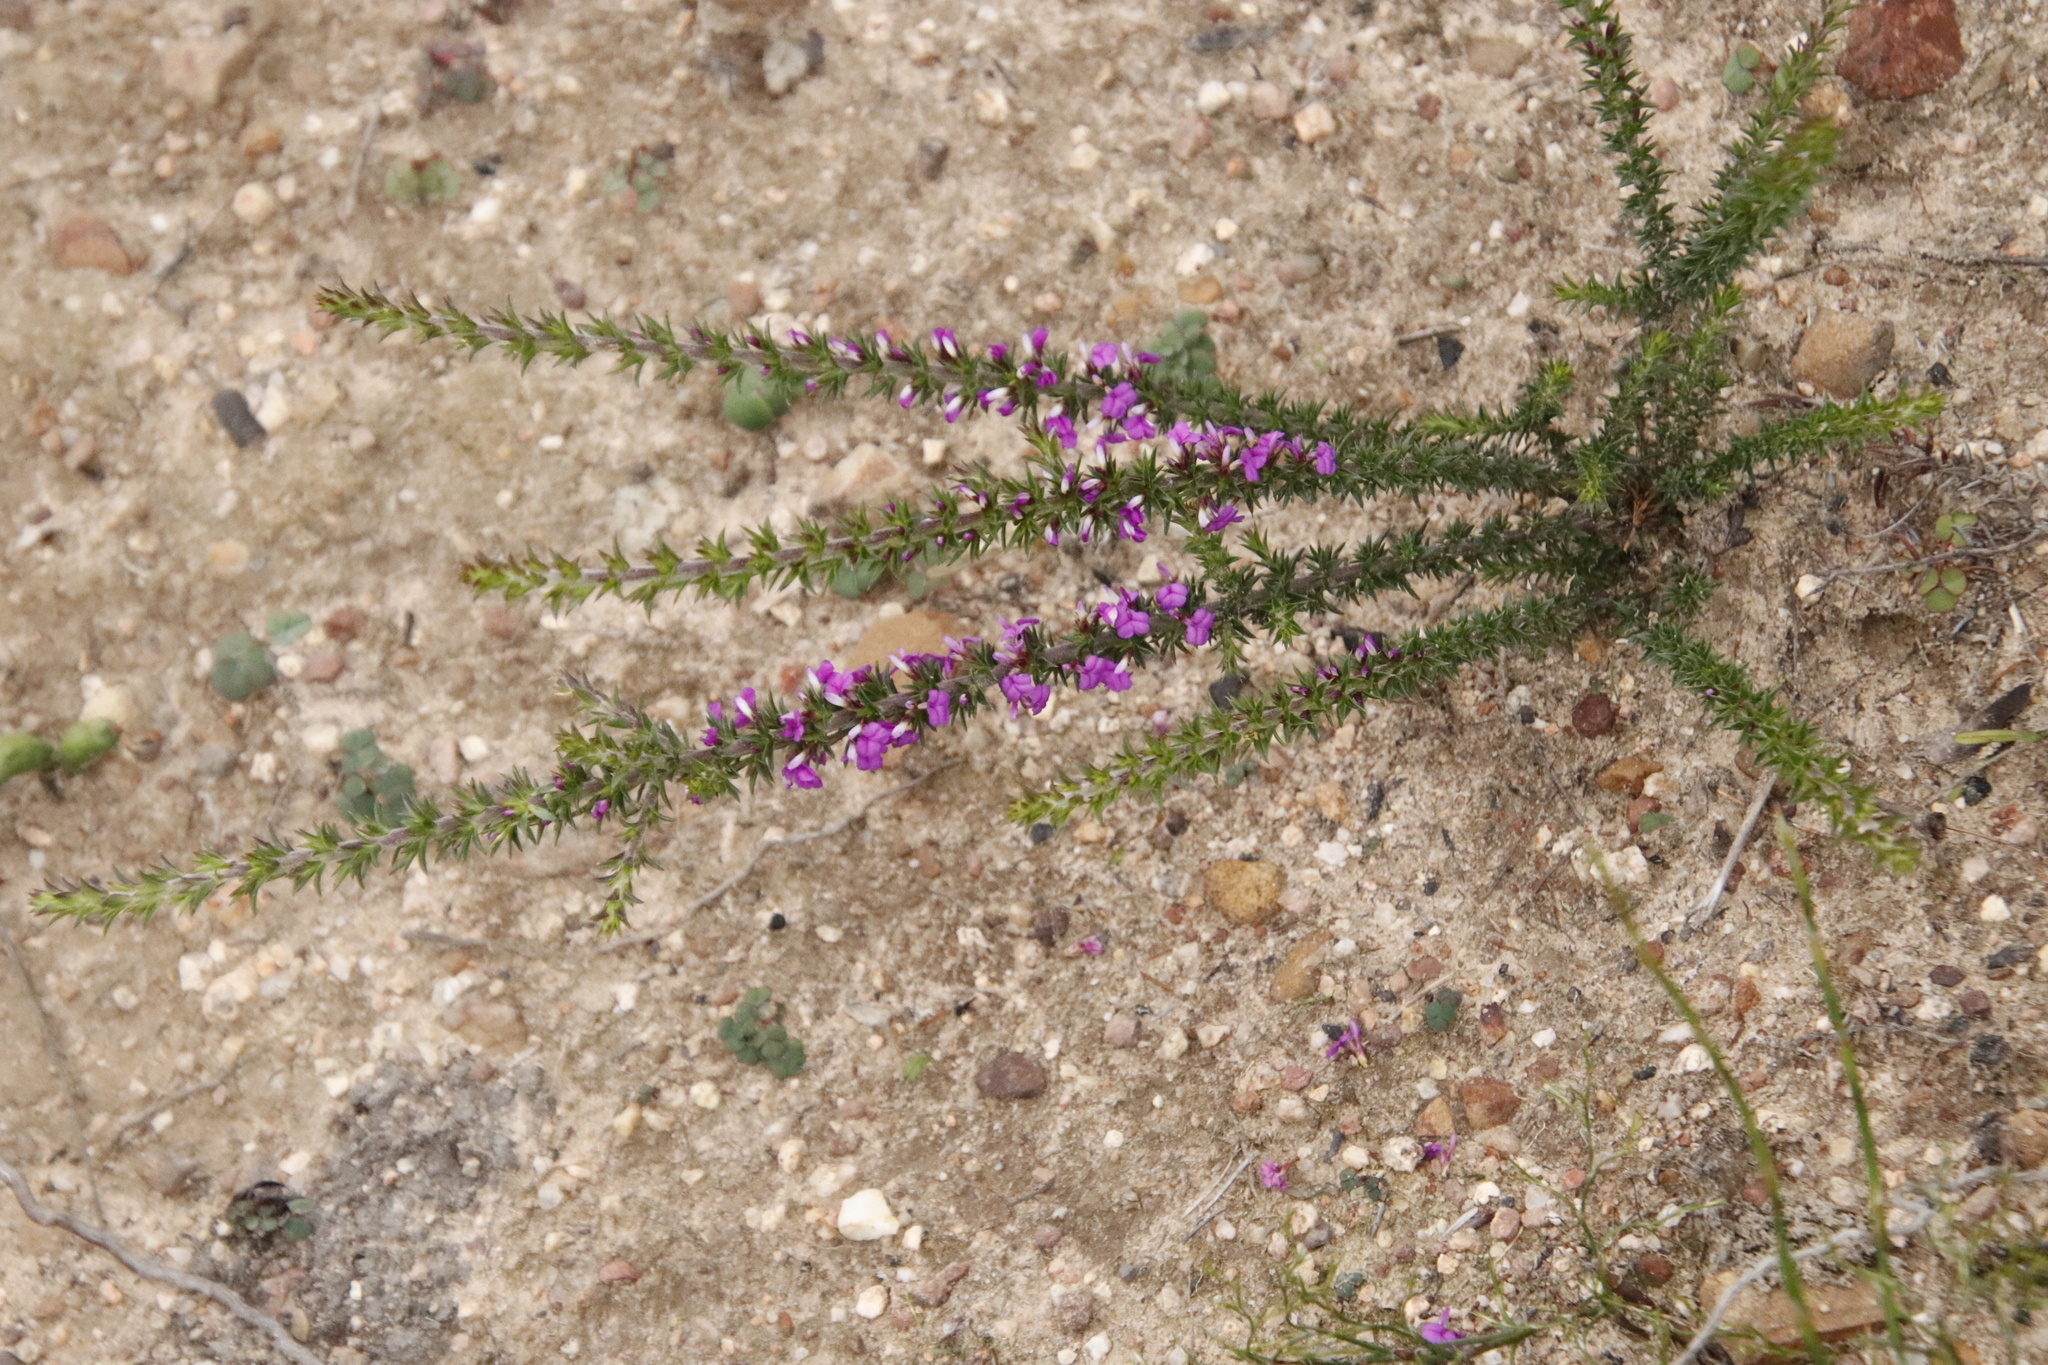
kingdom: Plantae
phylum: Tracheophyta
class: Magnoliopsida
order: Fabales
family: Polygalaceae
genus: Muraltia
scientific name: Muraltia heisteria
